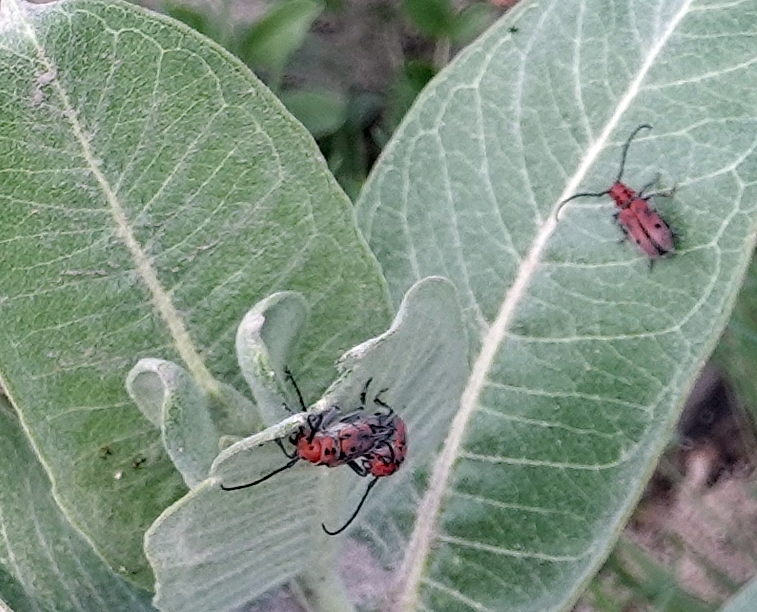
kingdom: Animalia
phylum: Arthropoda
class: Insecta
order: Coleoptera
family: Cerambycidae
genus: Tetraopes
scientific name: Tetraopes tetrophthalmus
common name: Red milkweed beetle
